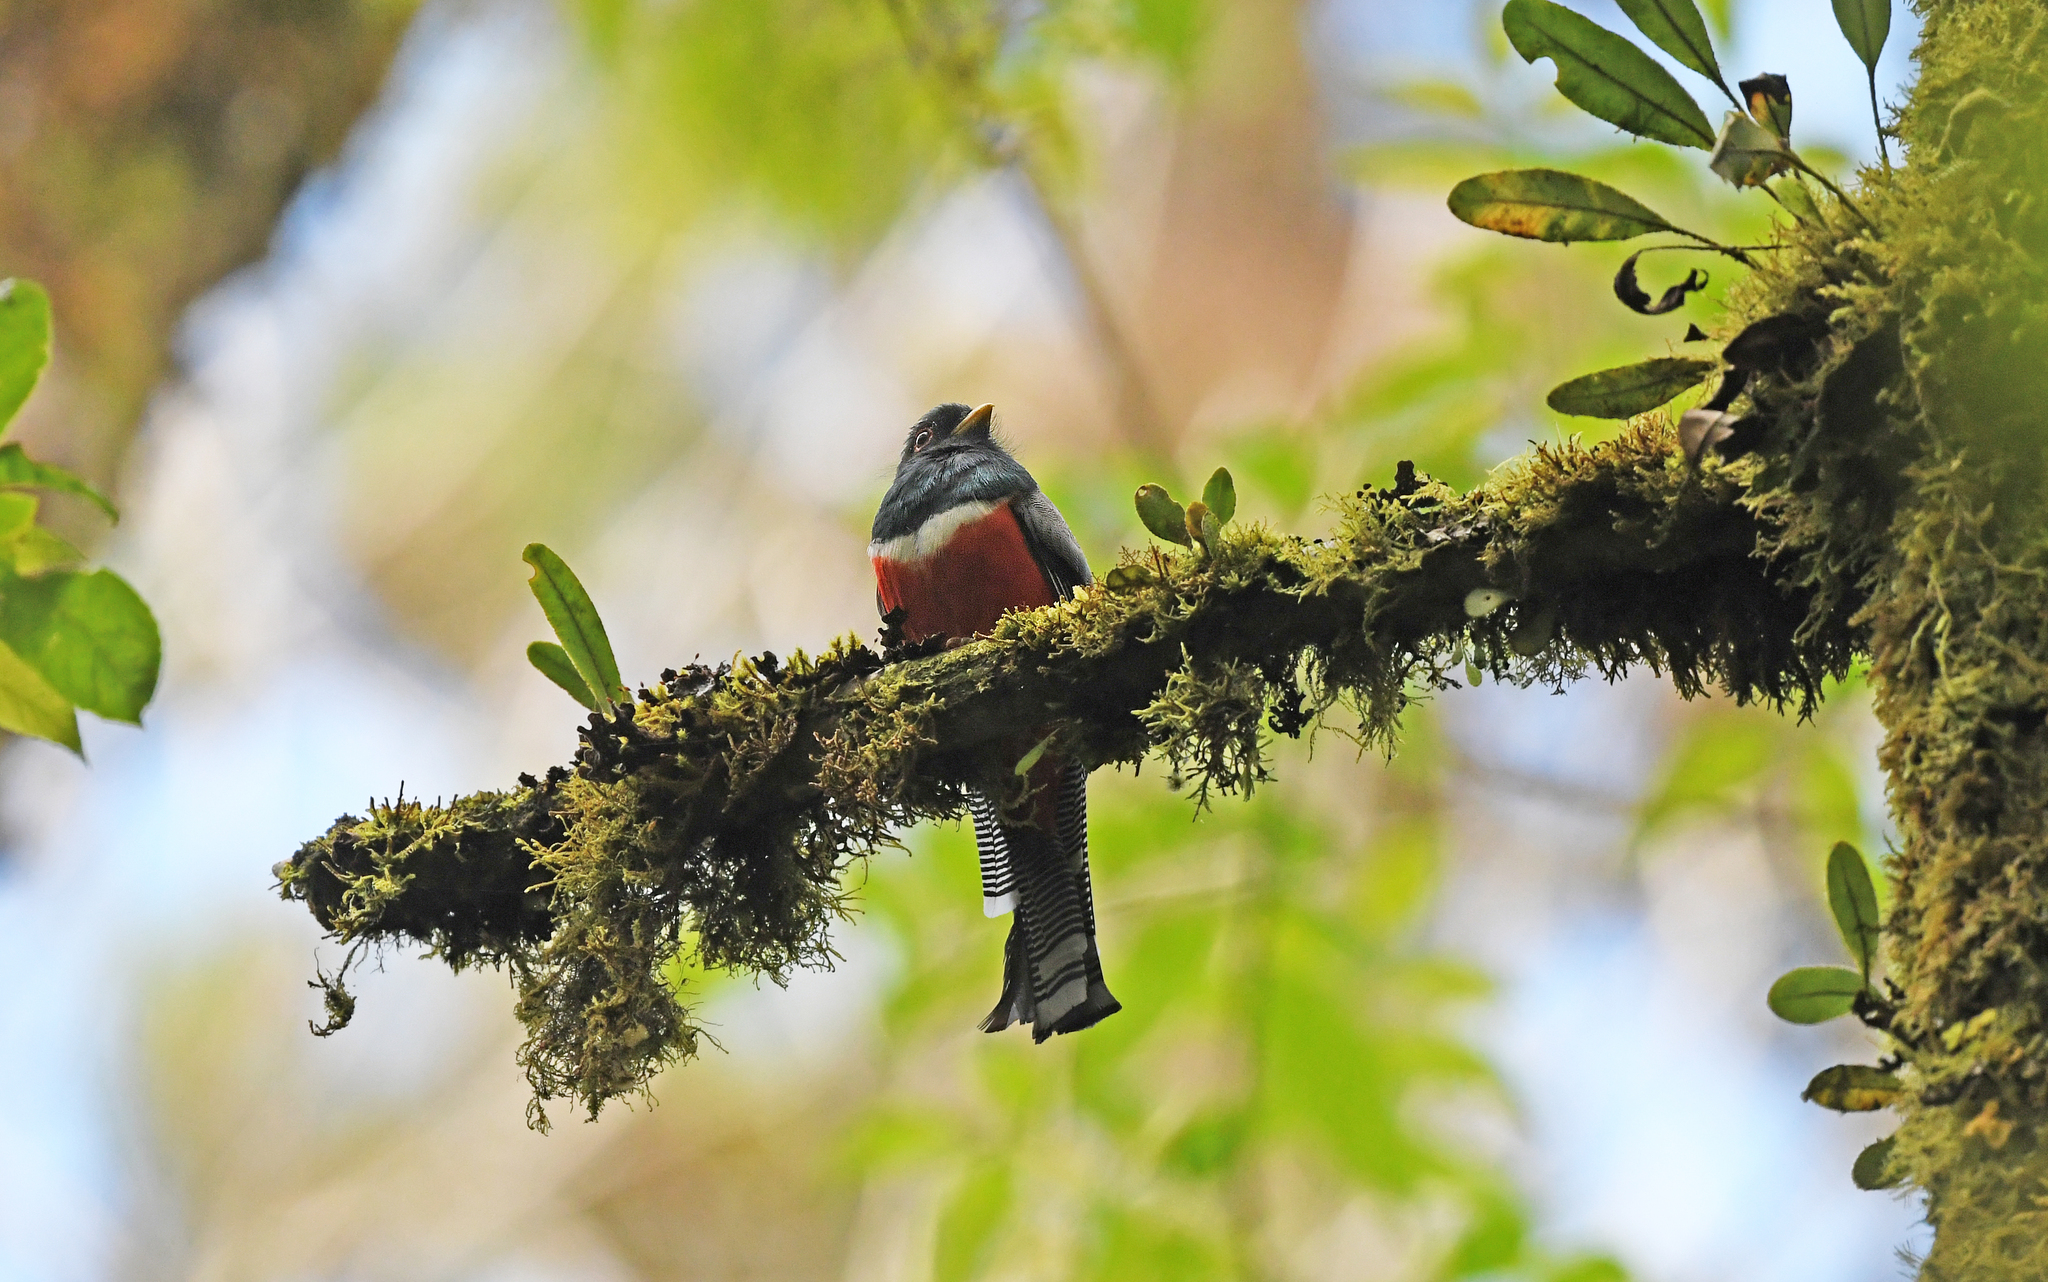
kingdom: Animalia
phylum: Chordata
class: Aves
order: Trogoniformes
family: Trogonidae
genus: Trogon
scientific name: Trogon collaris
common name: Collared trogon
